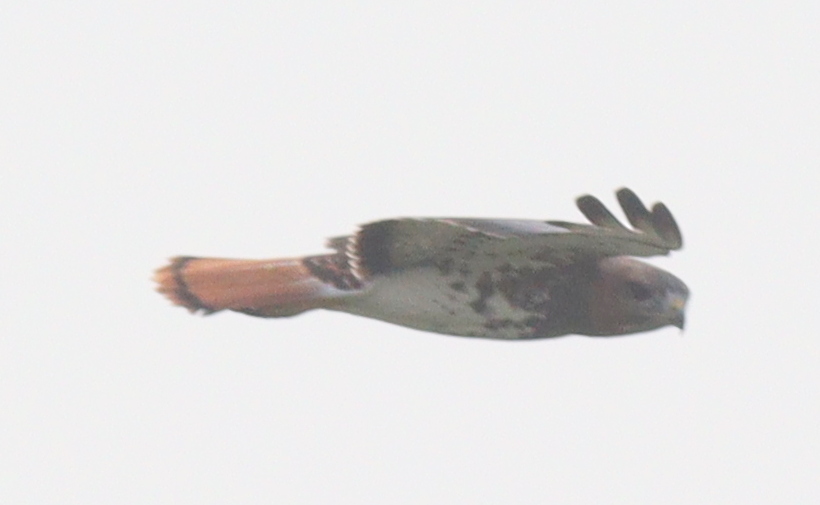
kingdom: Animalia
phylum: Chordata
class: Aves
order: Accipitriformes
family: Accipitridae
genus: Buteo
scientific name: Buteo auguralis
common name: Red-necked buzzard
